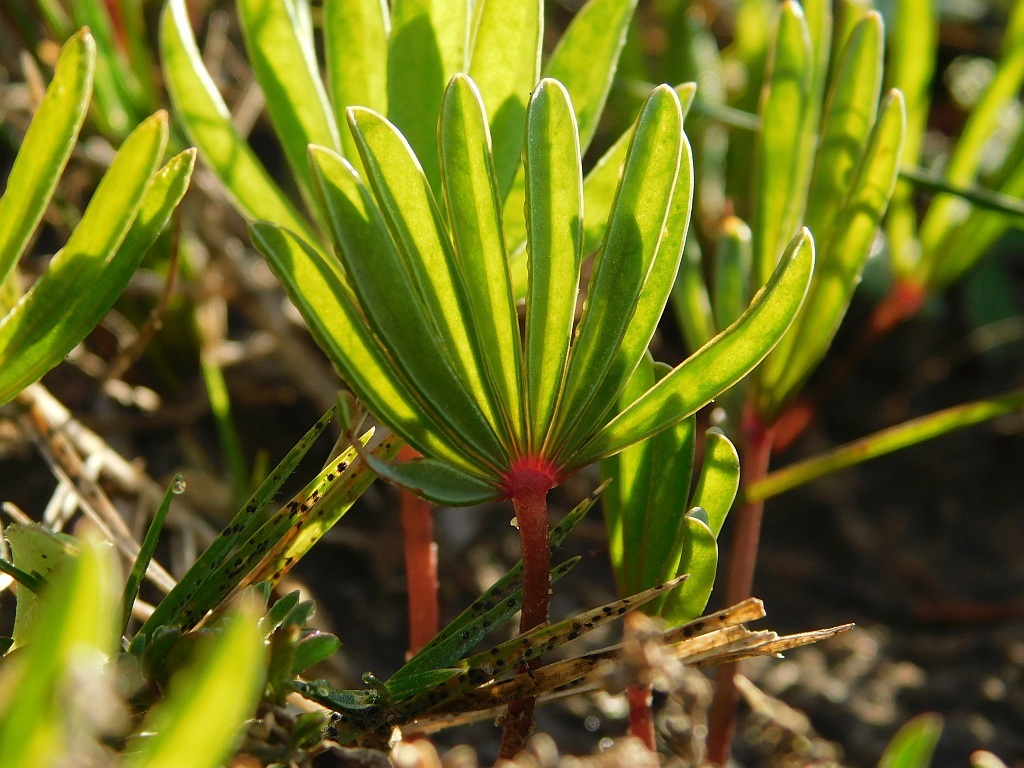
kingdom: Plantae
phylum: Tracheophyta
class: Magnoliopsida
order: Oxalidales
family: Oxalidaceae
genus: Oxalis
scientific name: Oxalis flava
